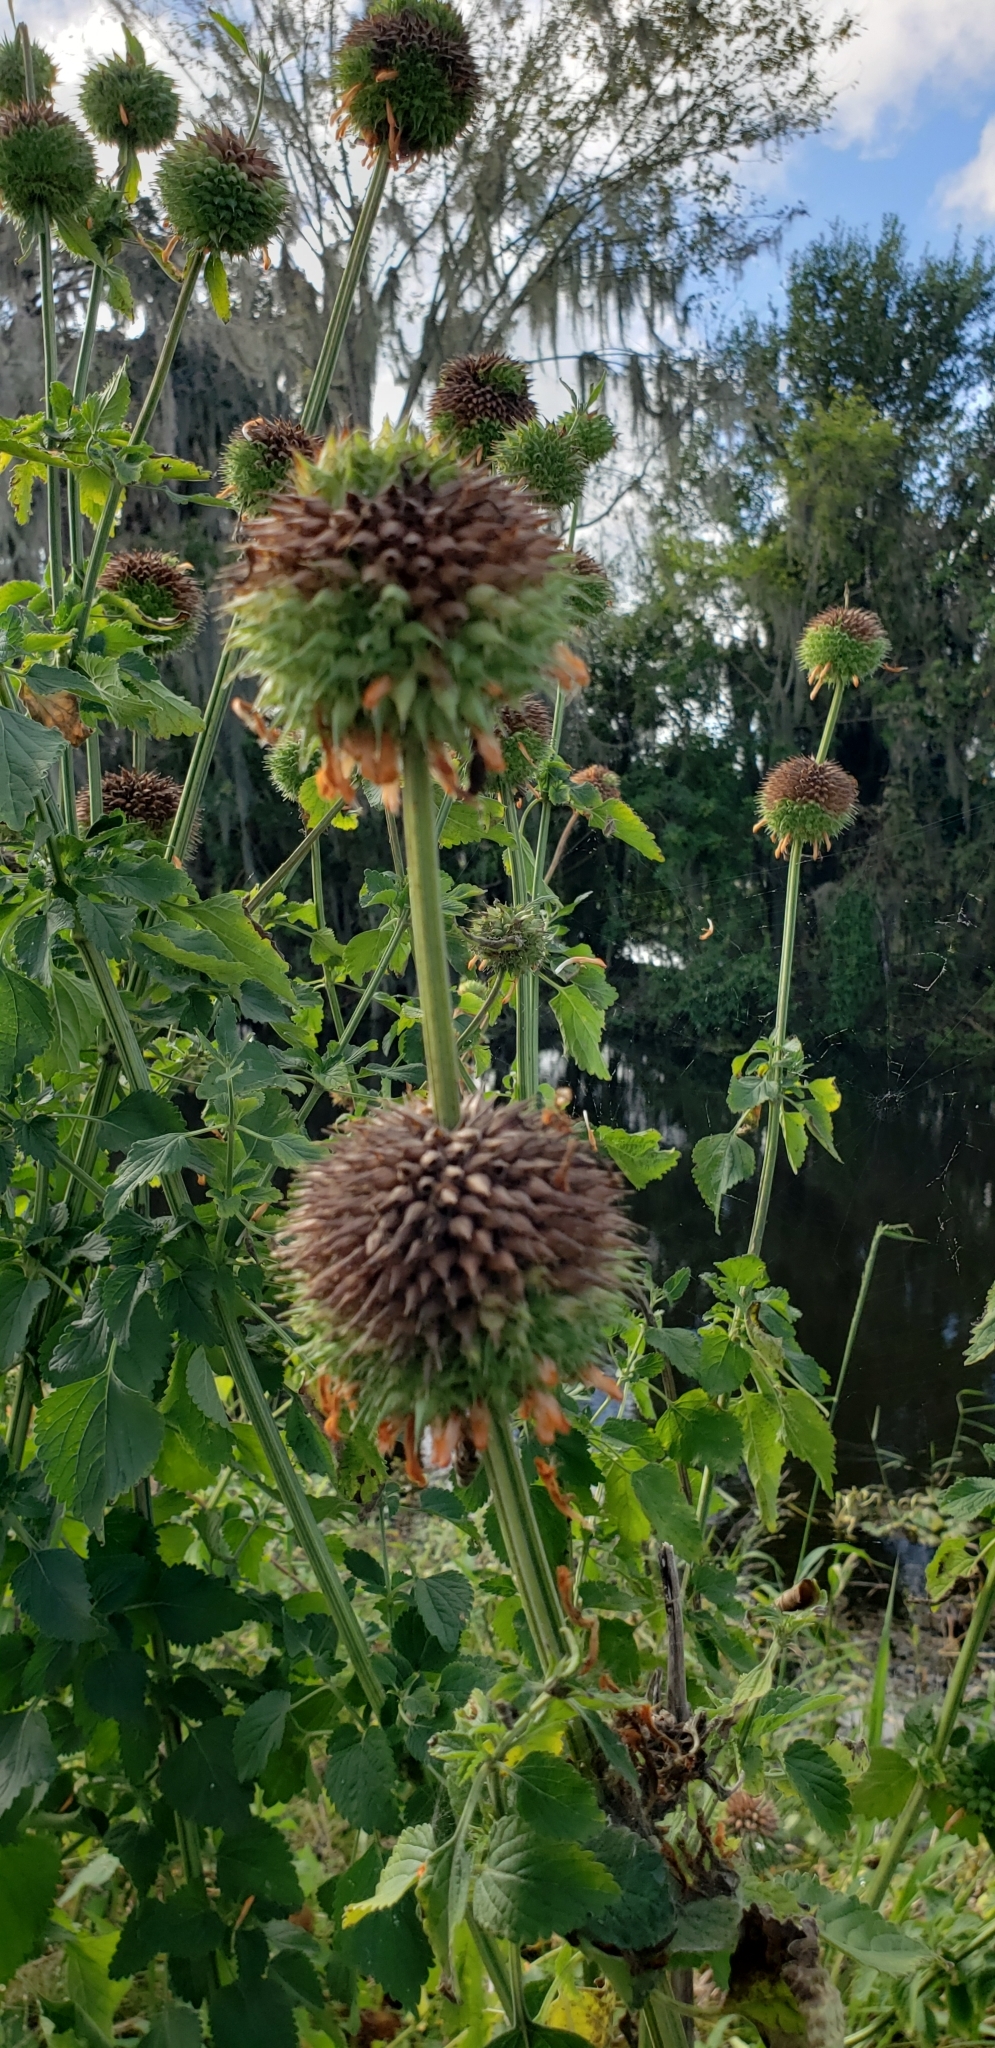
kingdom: Plantae
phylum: Tracheophyta
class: Magnoliopsida
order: Lamiales
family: Lamiaceae
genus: Leonotis
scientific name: Leonotis nepetifolia
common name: Christmas candlestick
